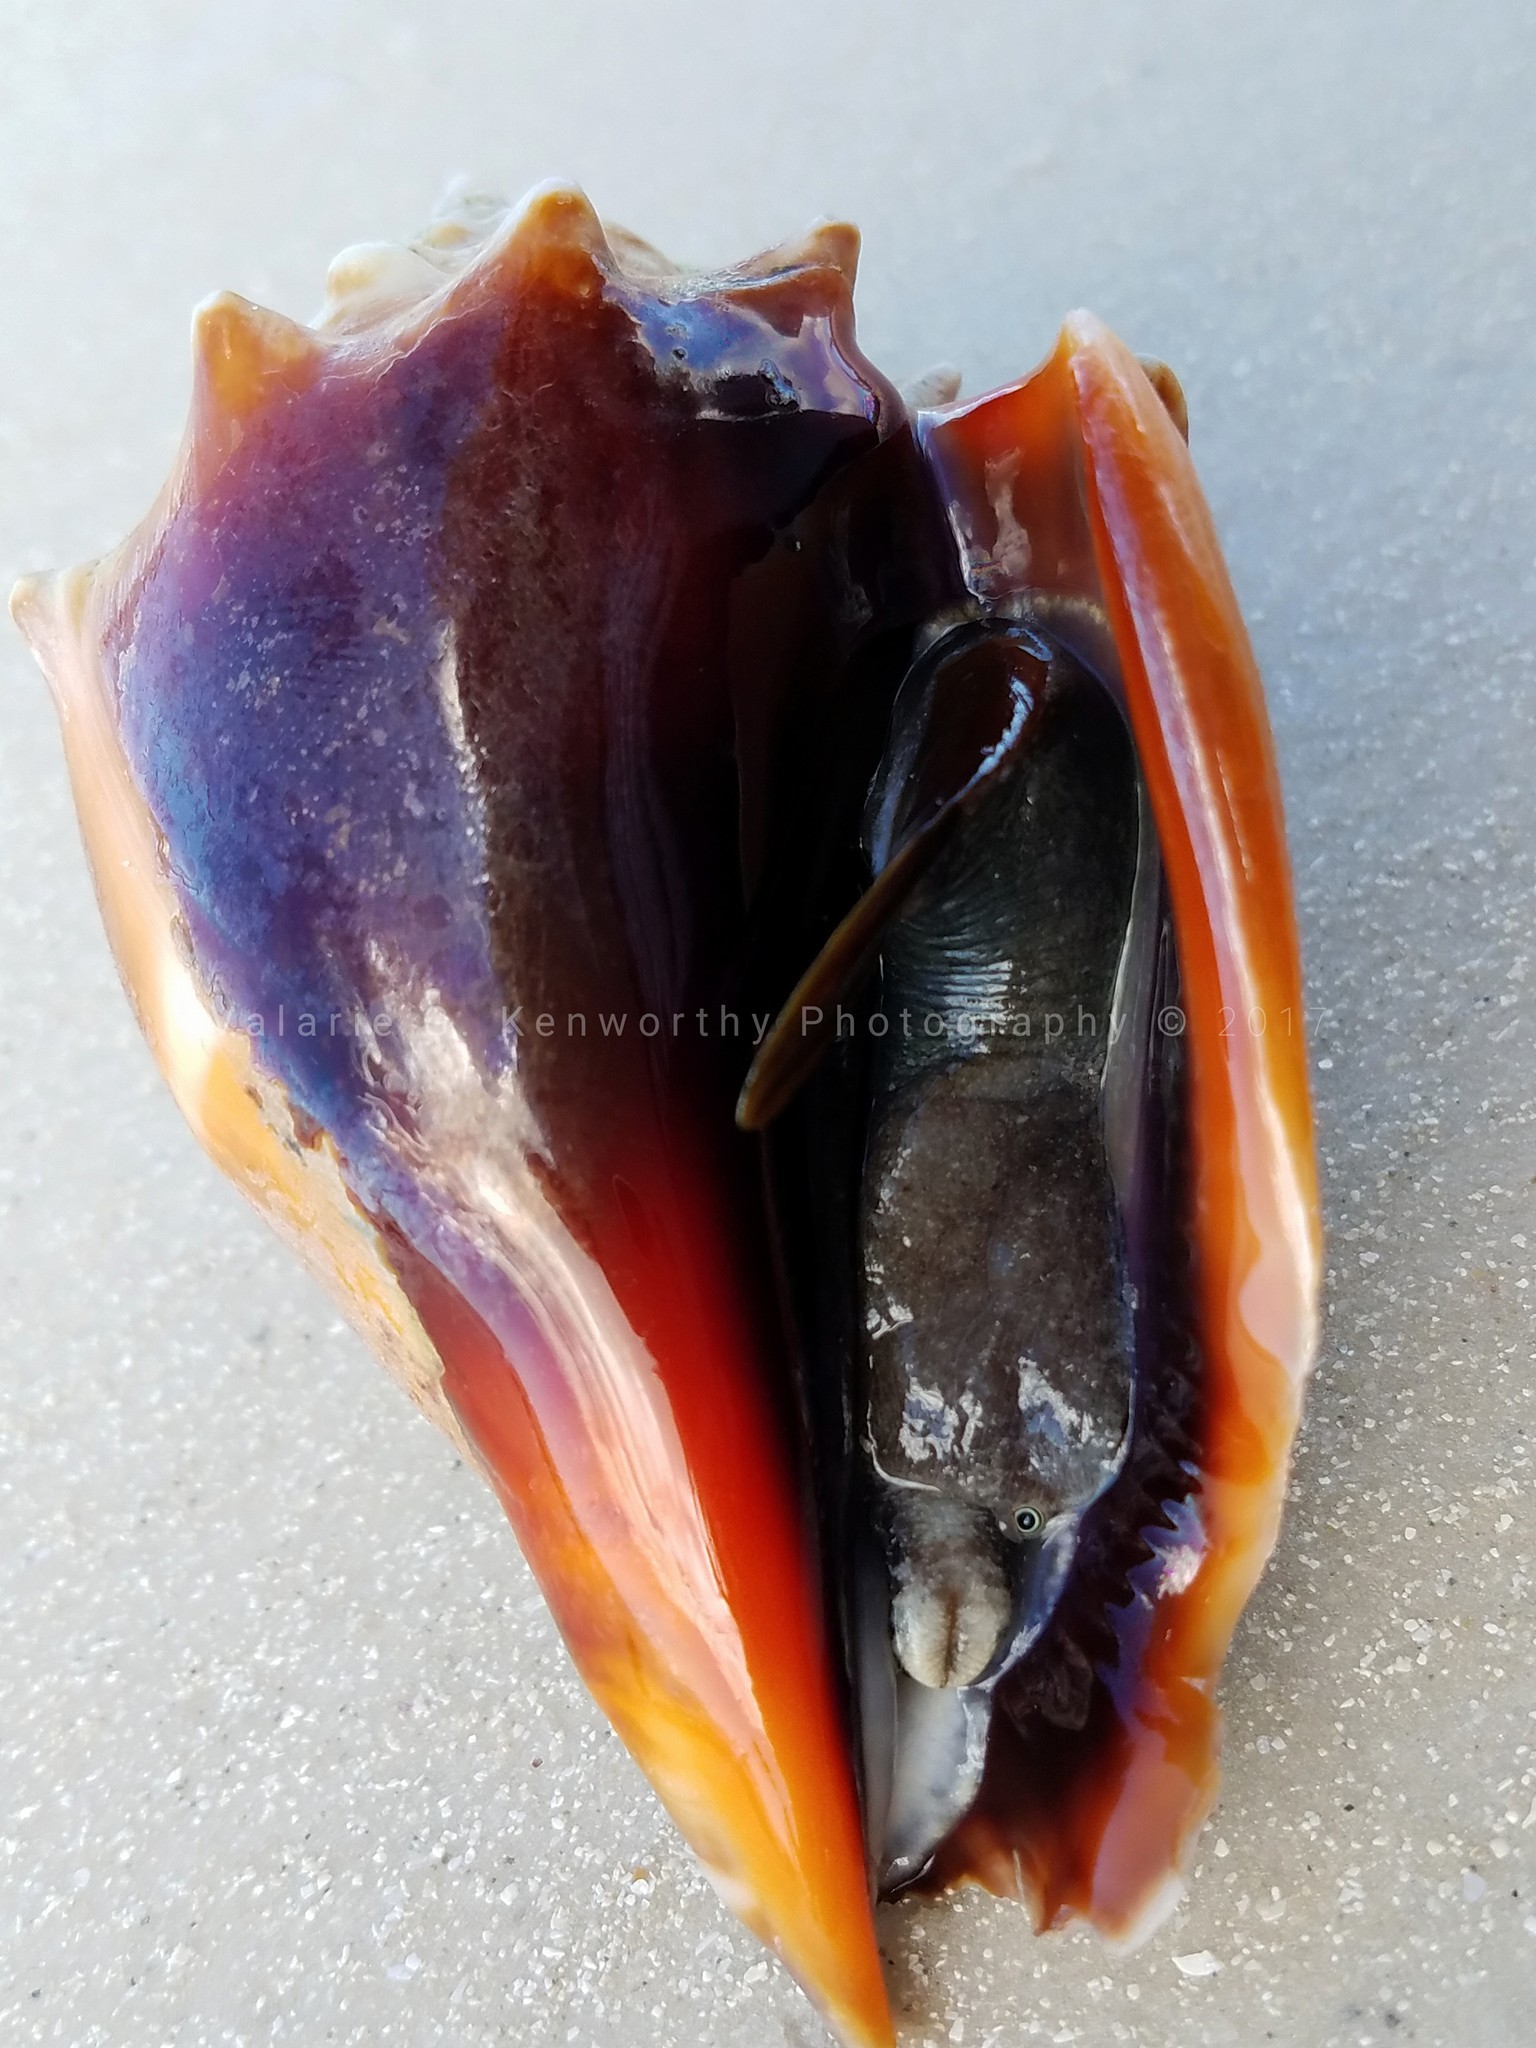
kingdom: Animalia
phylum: Mollusca
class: Gastropoda
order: Littorinimorpha
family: Strombidae
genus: Strombus
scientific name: Strombus alatus
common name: Florida fighting conch
